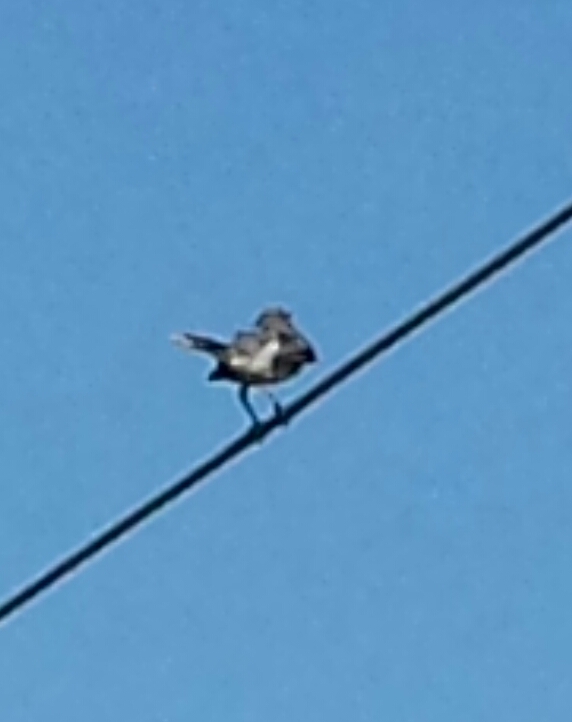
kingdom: Animalia
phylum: Chordata
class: Aves
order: Passeriformes
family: Mimidae
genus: Mimus
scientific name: Mimus polyglottos
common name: Northern mockingbird
